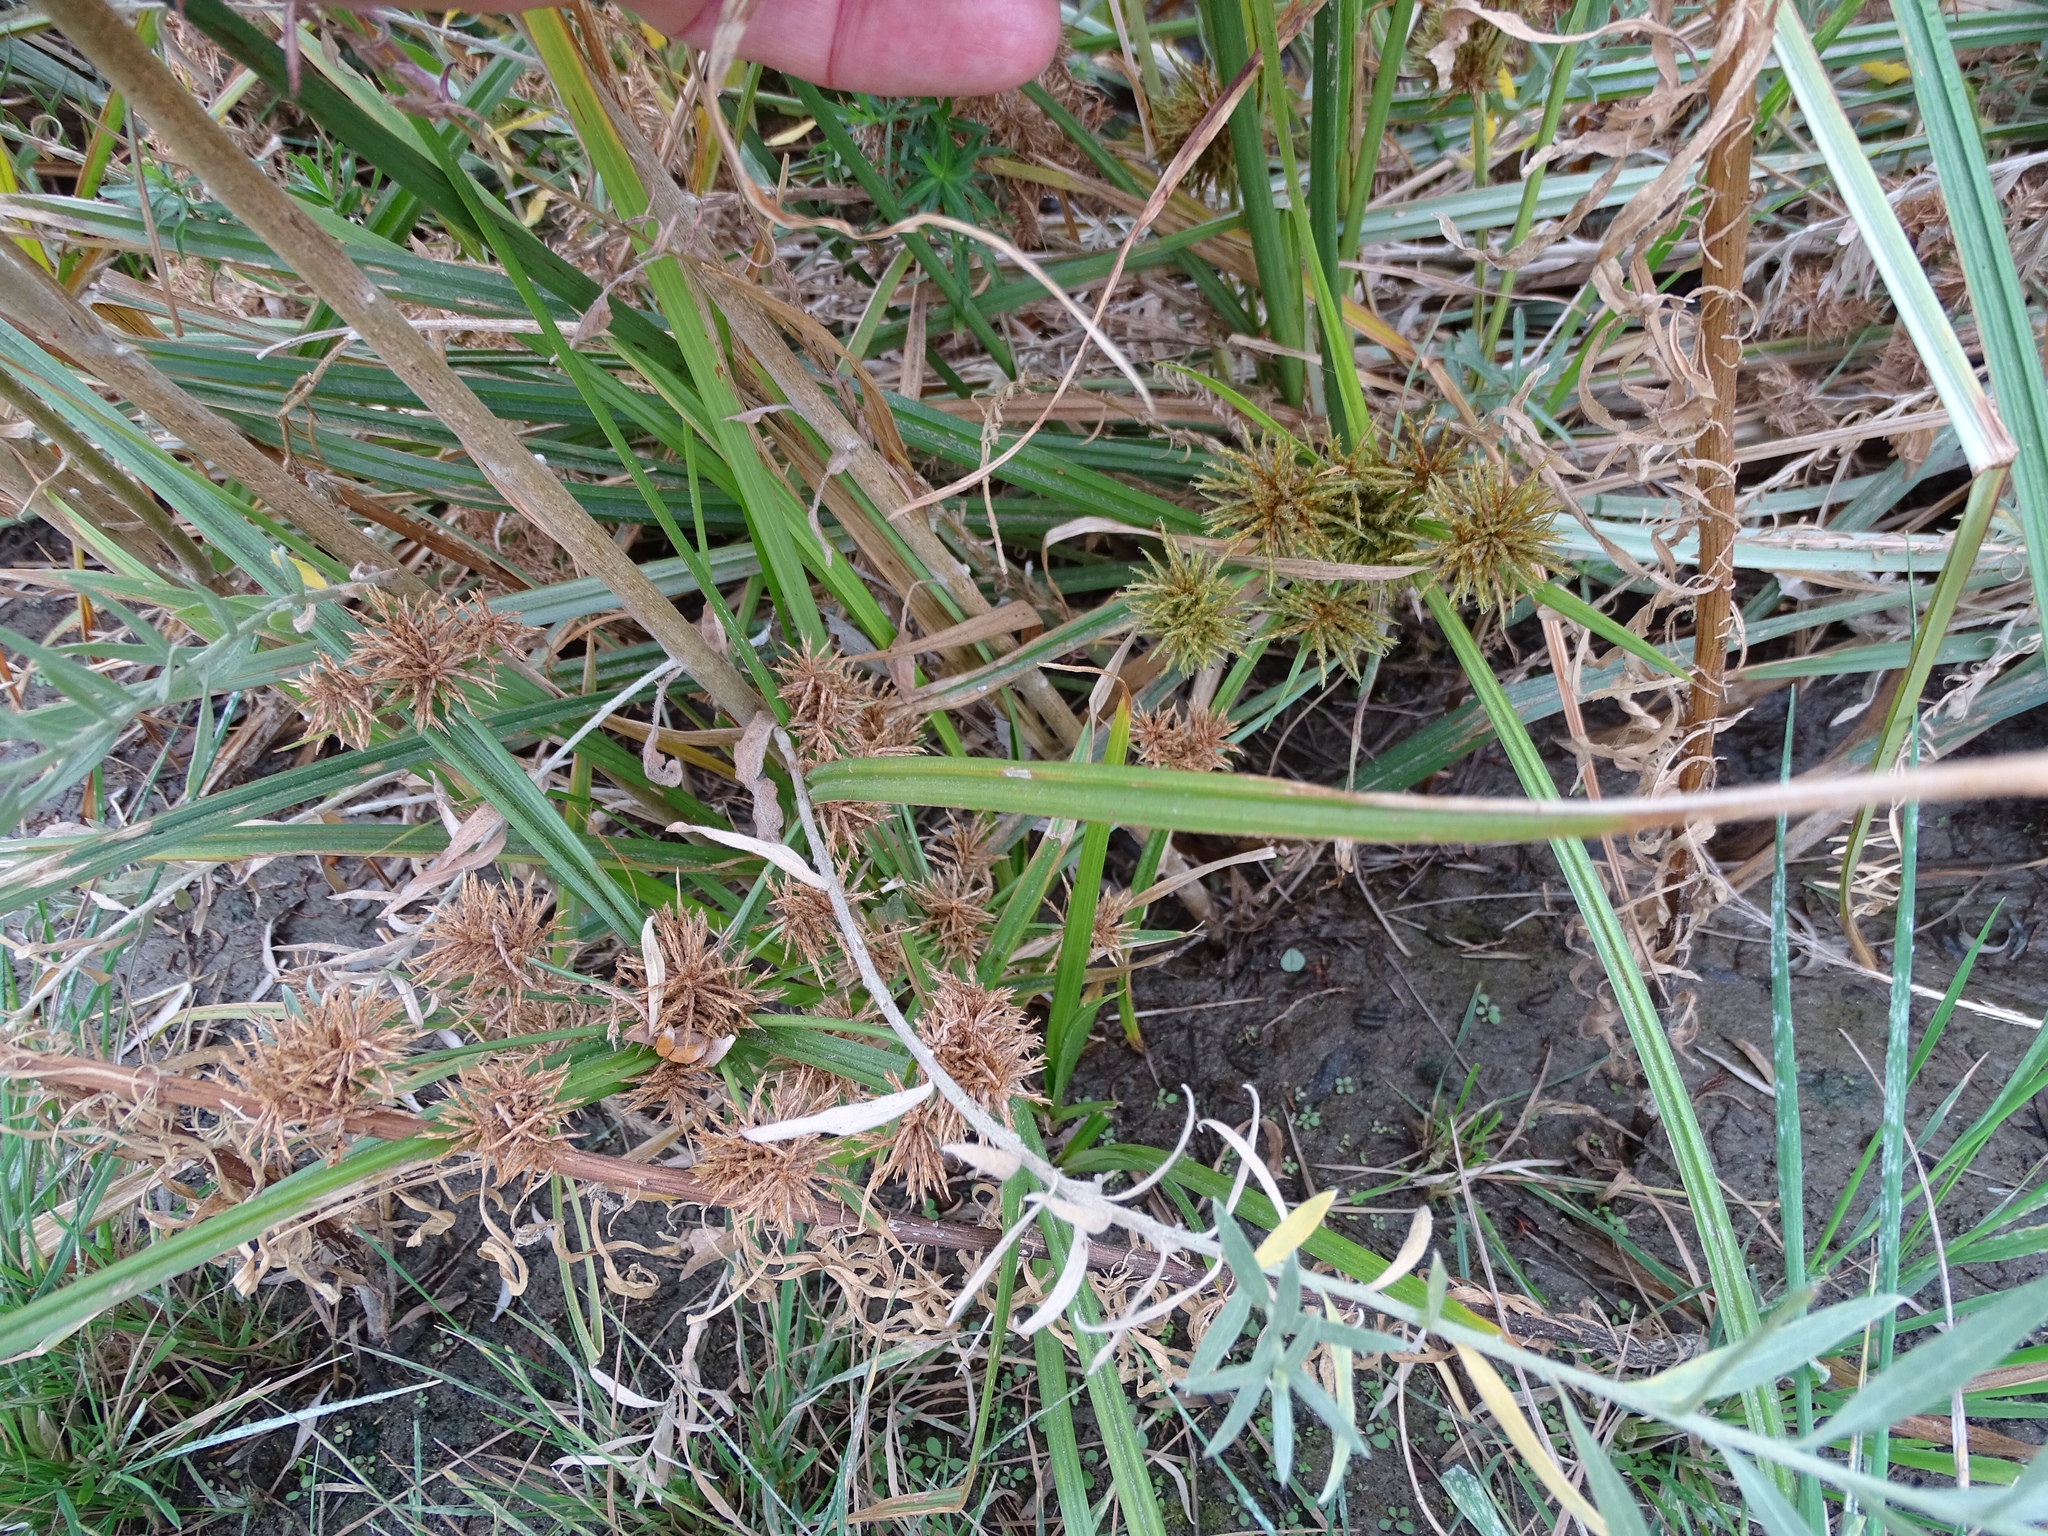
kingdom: Plantae
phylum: Tracheophyta
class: Liliopsida
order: Poales
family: Cyperaceae
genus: Cyperus
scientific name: Cyperus odoratus
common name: Fragrant flatsedge
